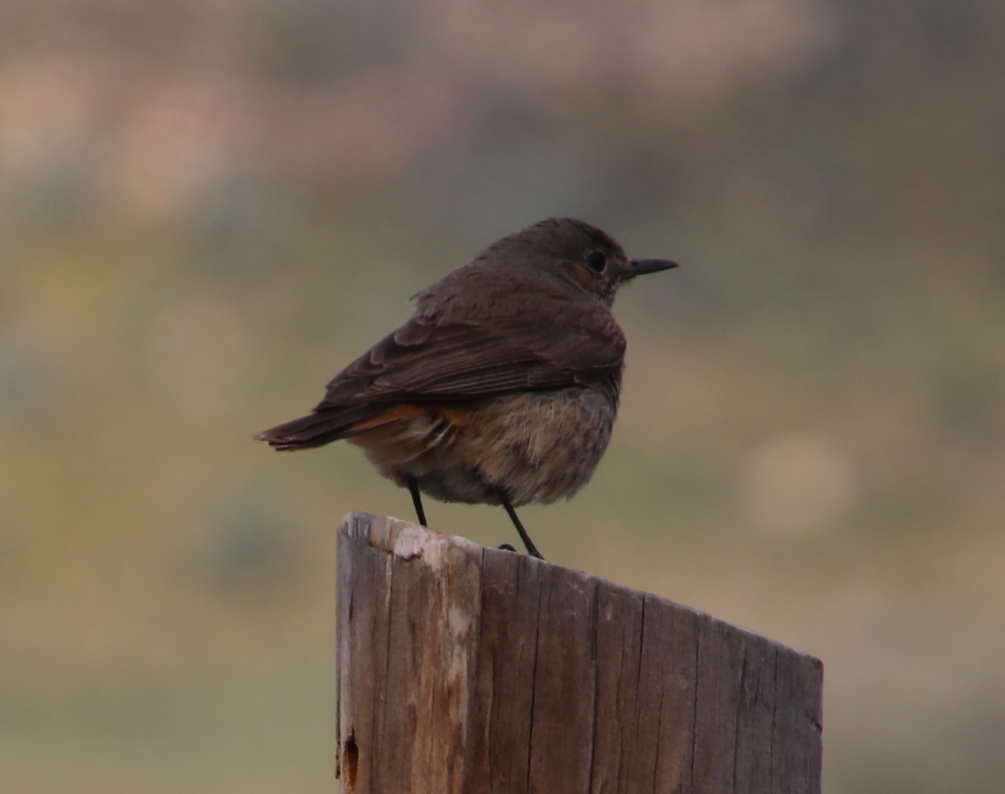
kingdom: Animalia
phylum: Chordata
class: Aves
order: Passeriformes
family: Muscicapidae
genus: Oenanthe
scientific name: Oenanthe familiaris
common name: Familiar chat
